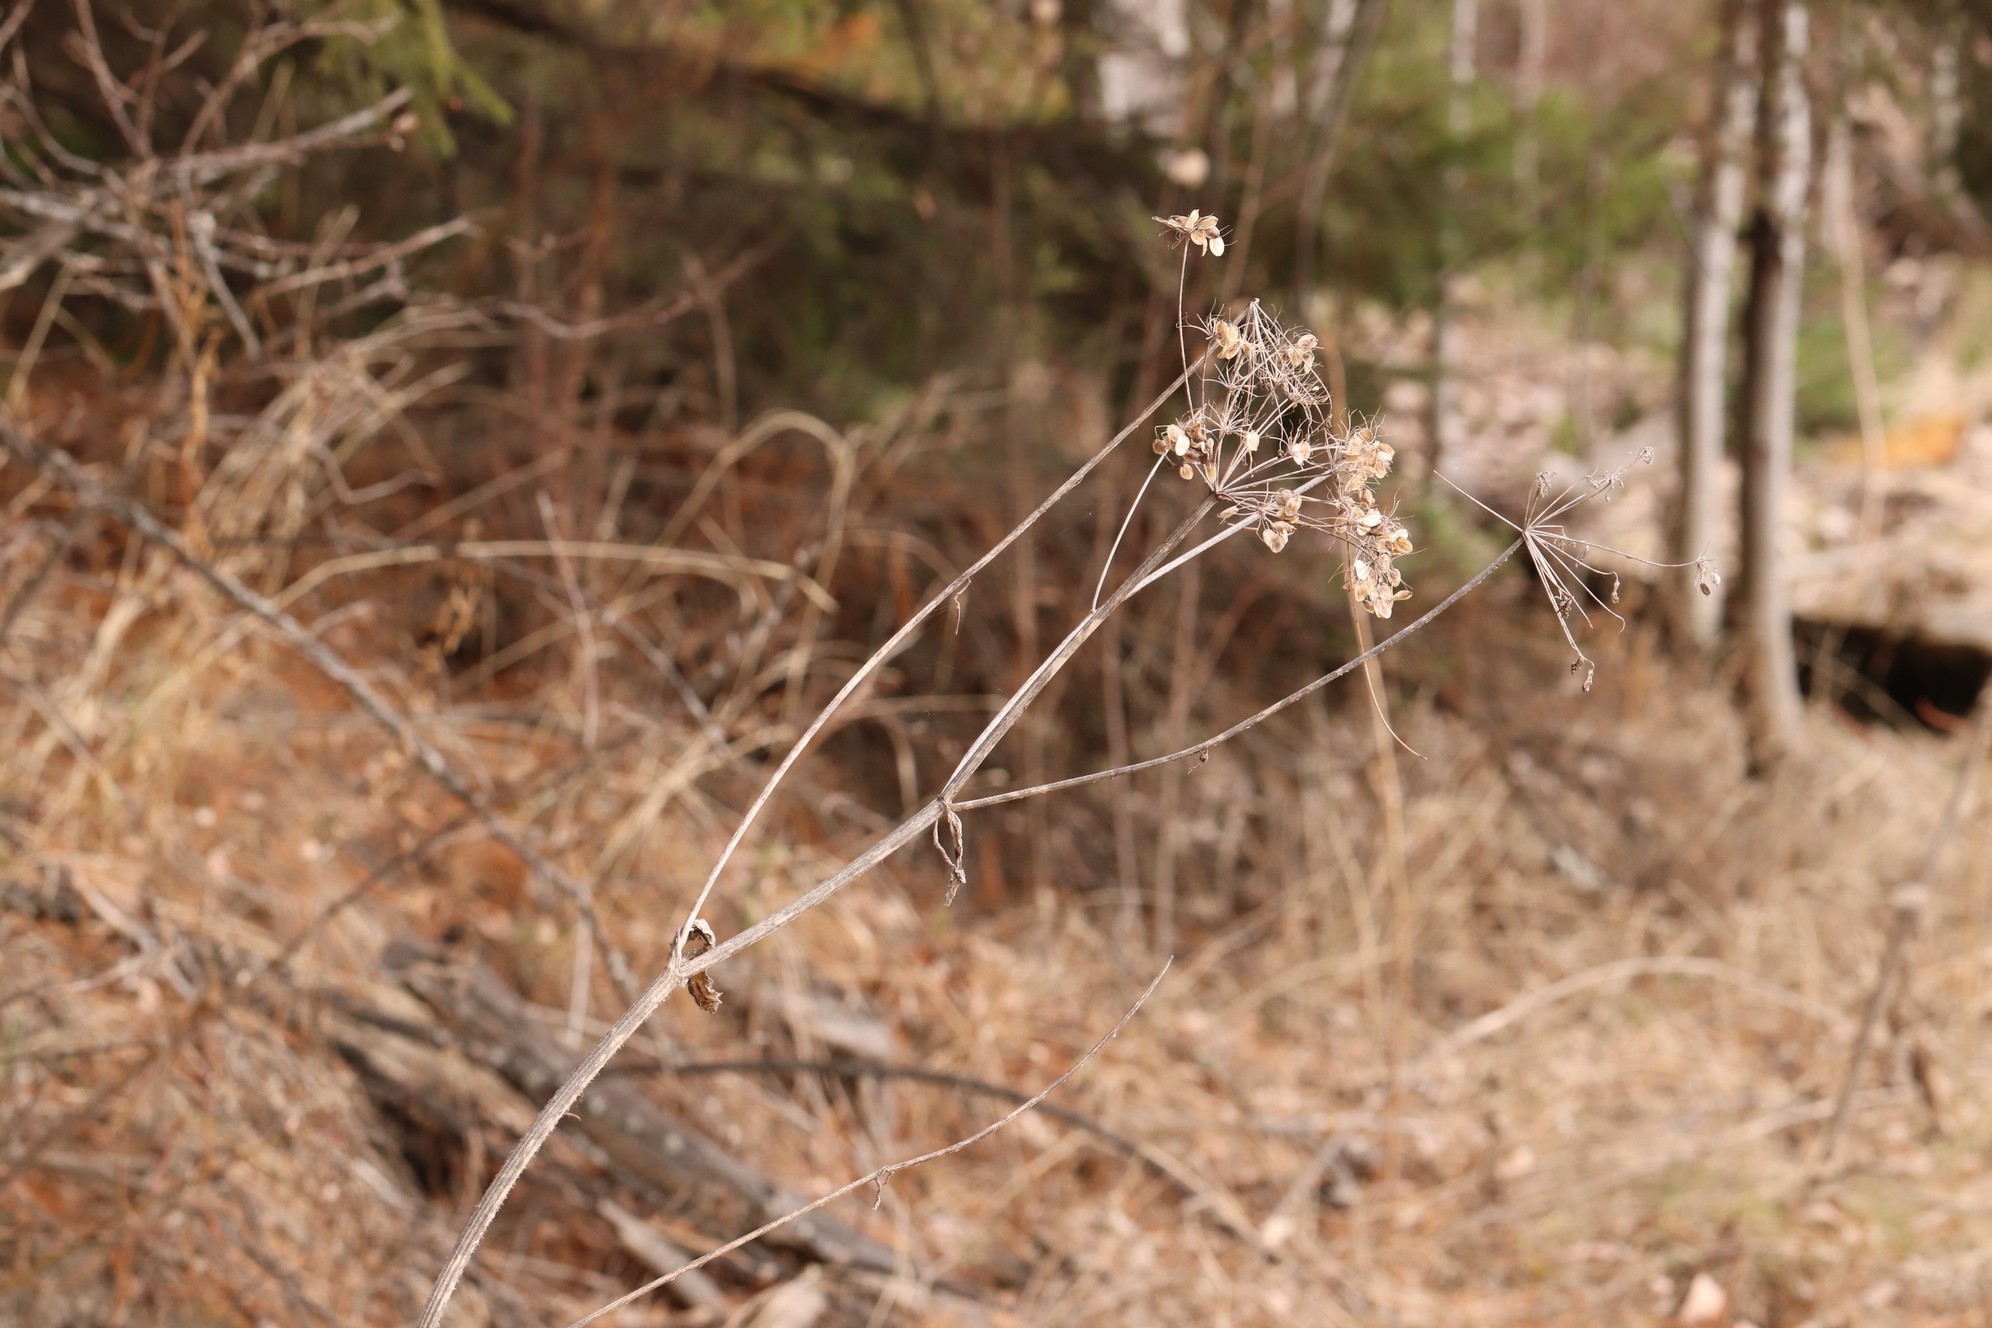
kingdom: Plantae
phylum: Tracheophyta
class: Magnoliopsida
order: Apiales
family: Apiaceae
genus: Heracleum
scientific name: Heracleum sphondylium
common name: Hogweed
